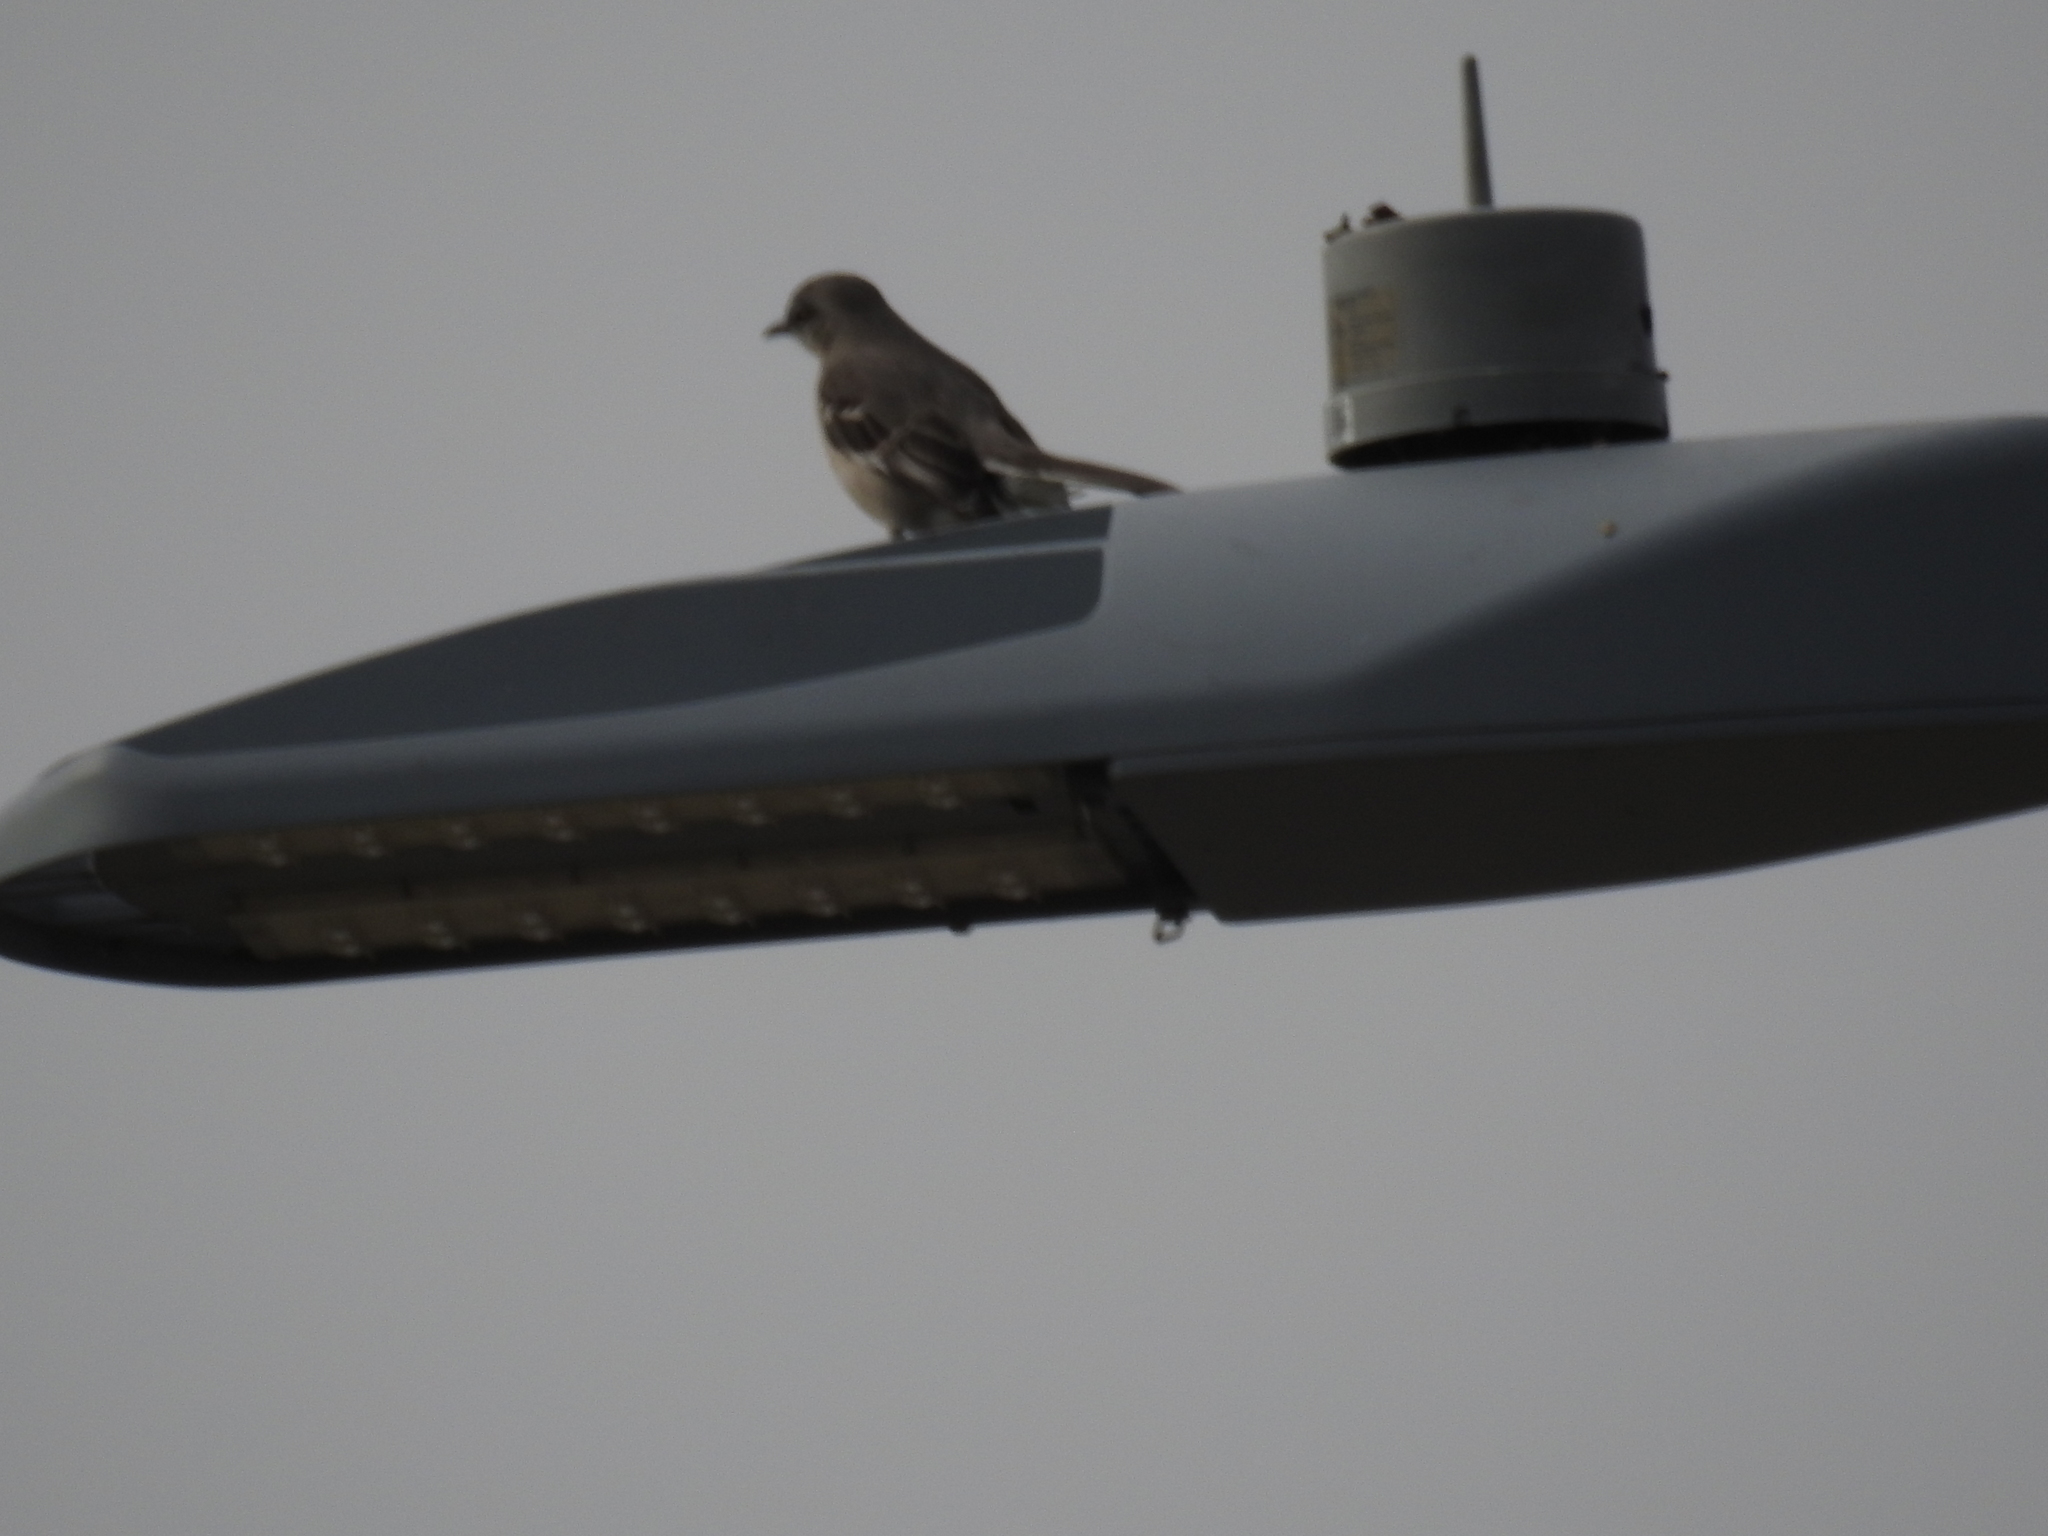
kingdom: Animalia
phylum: Chordata
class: Aves
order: Passeriformes
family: Mimidae
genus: Mimus
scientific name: Mimus polyglottos
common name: Northern mockingbird
